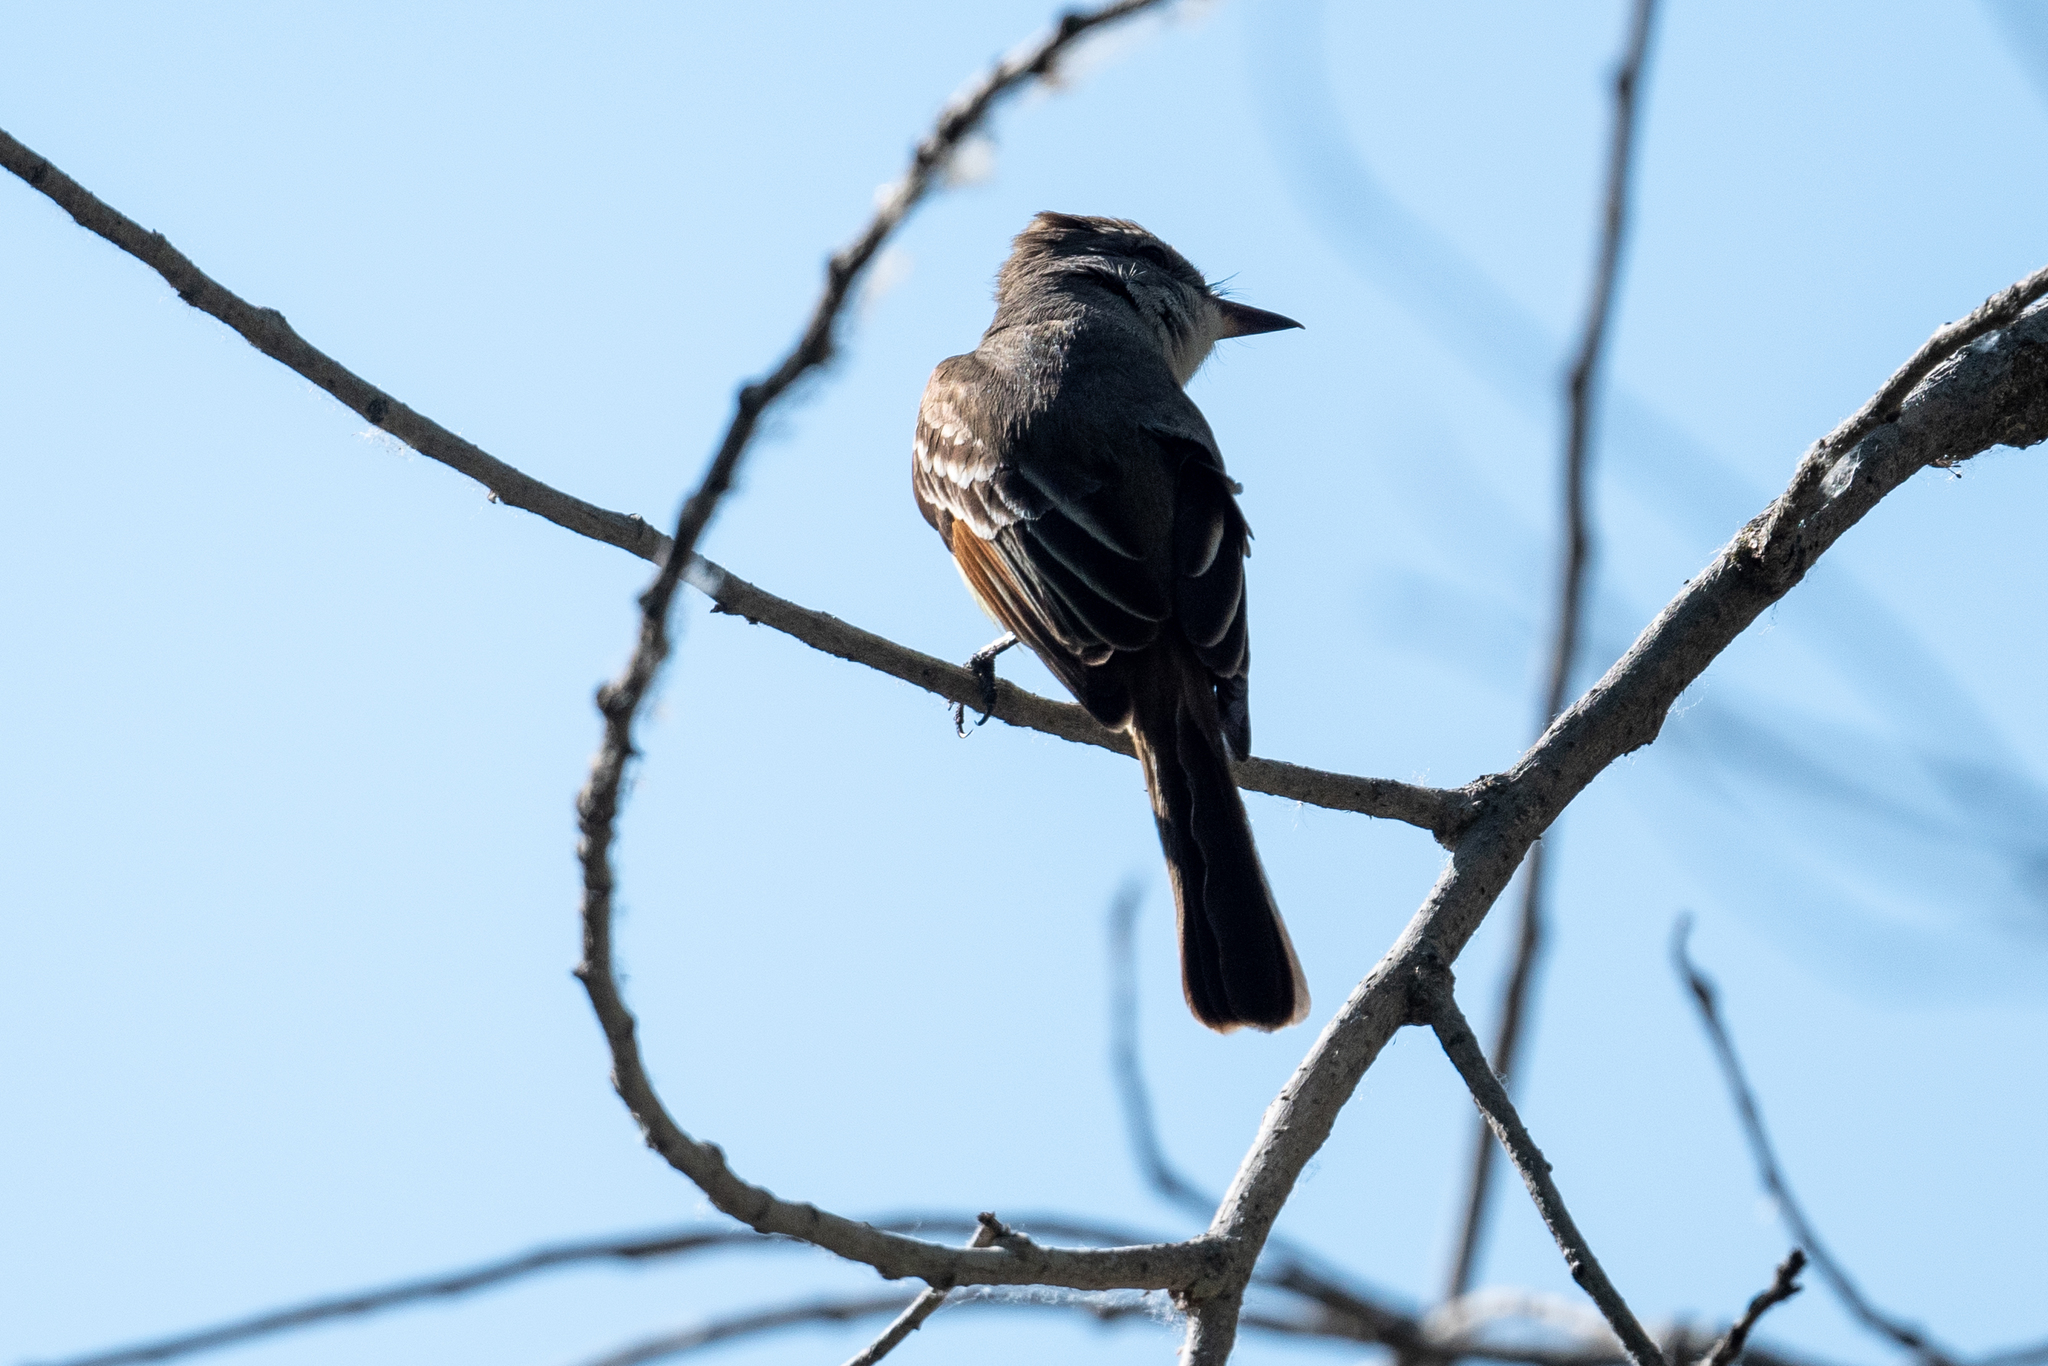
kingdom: Animalia
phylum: Chordata
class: Aves
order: Passeriformes
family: Tyrannidae
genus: Myiarchus
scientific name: Myiarchus cinerascens
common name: Ash-throated flycatcher
